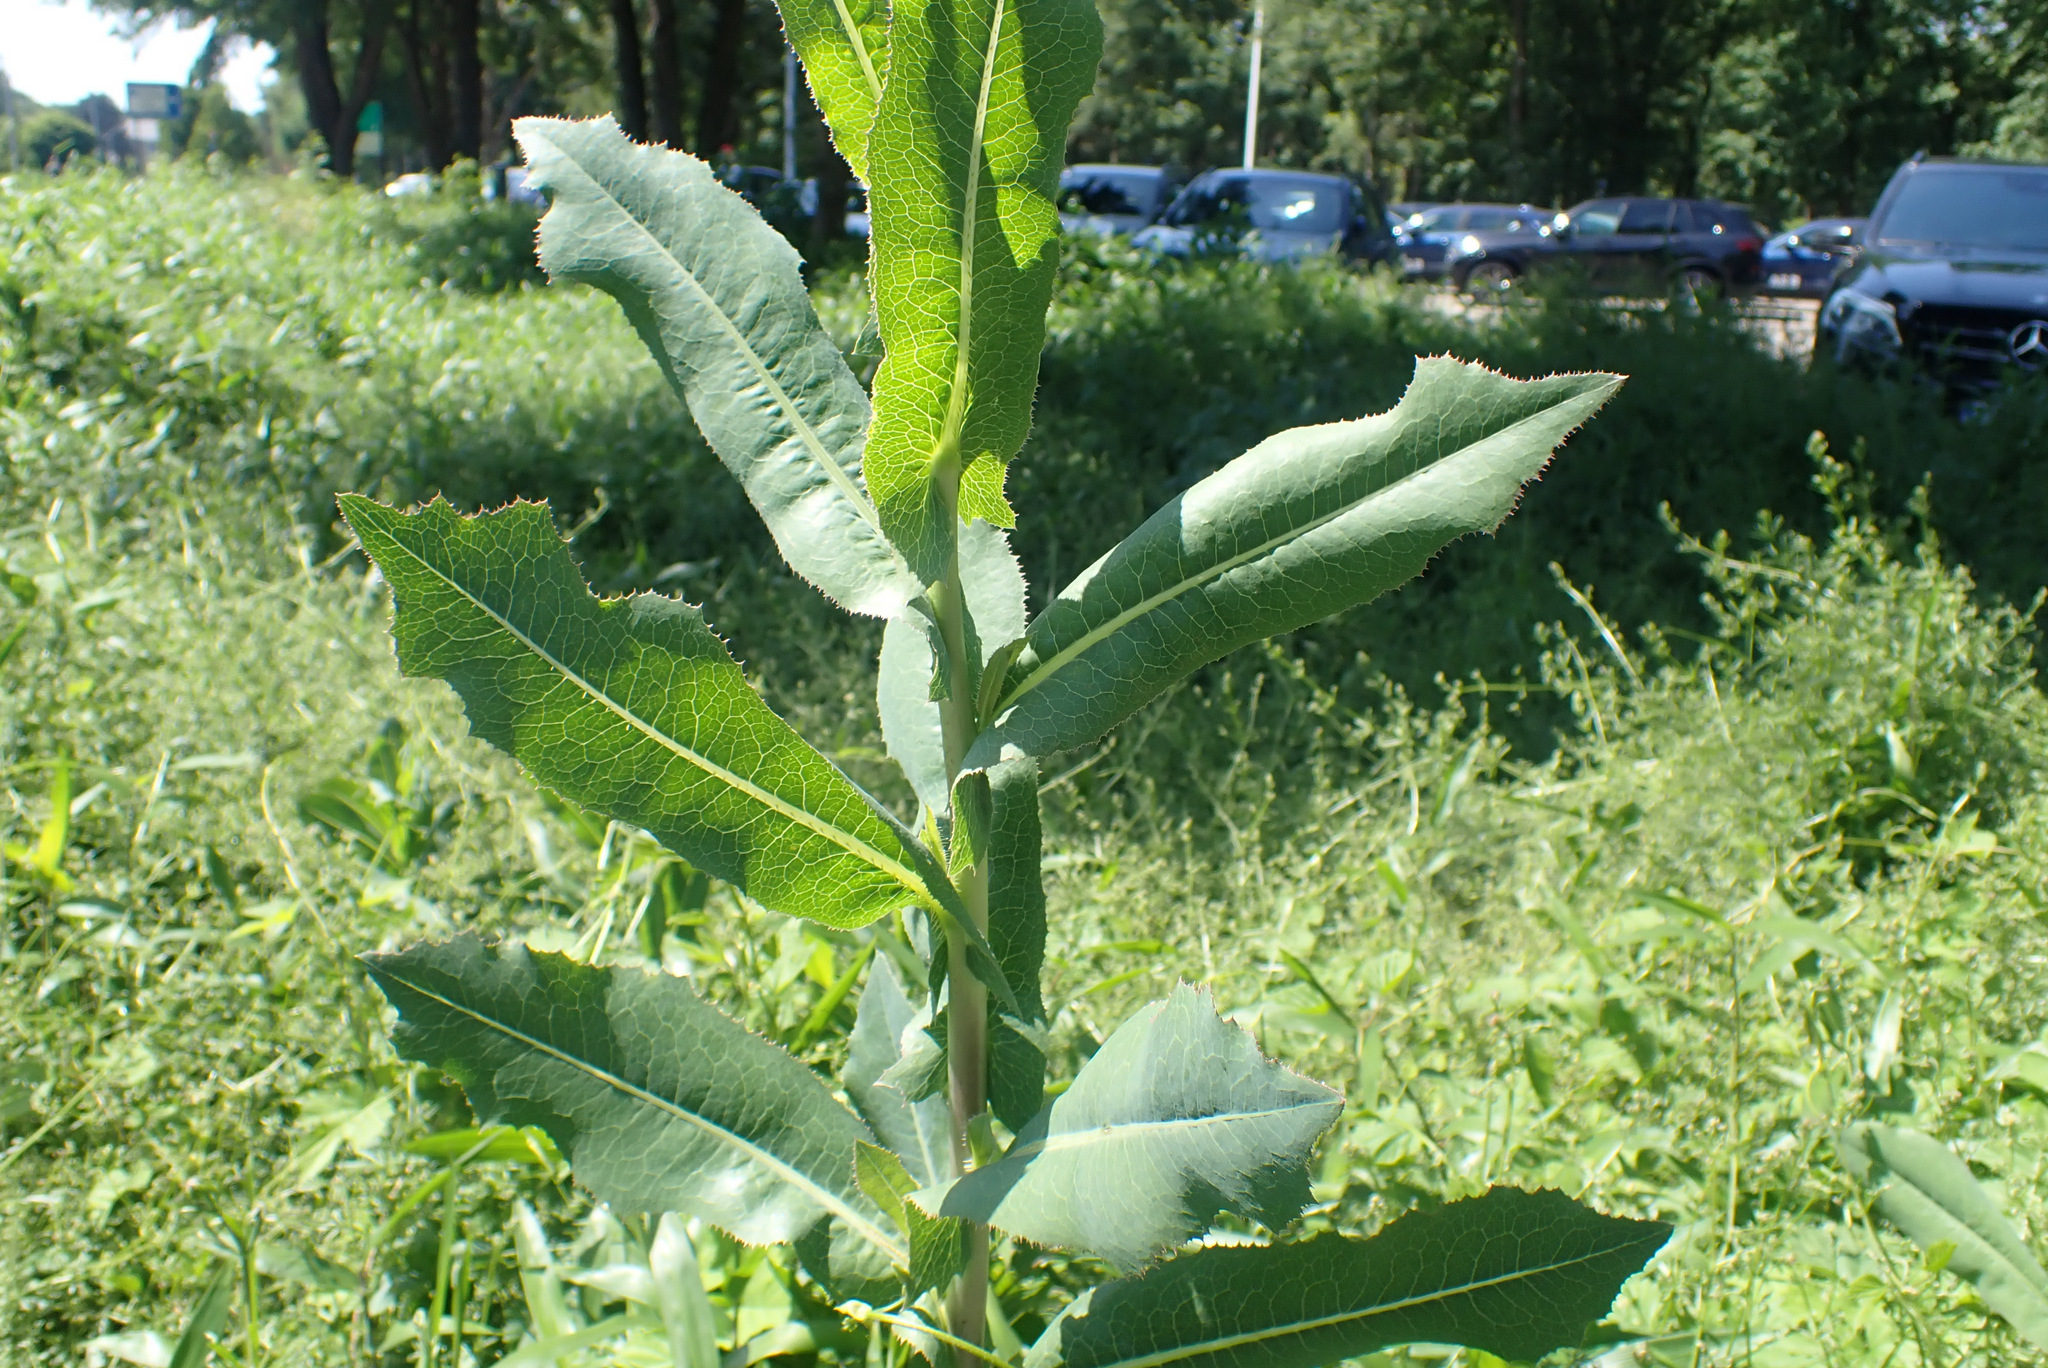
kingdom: Plantae
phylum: Tracheophyta
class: Magnoliopsida
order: Asterales
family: Asteraceae
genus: Lactuca
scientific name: Lactuca serriola
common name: Prickly lettuce
